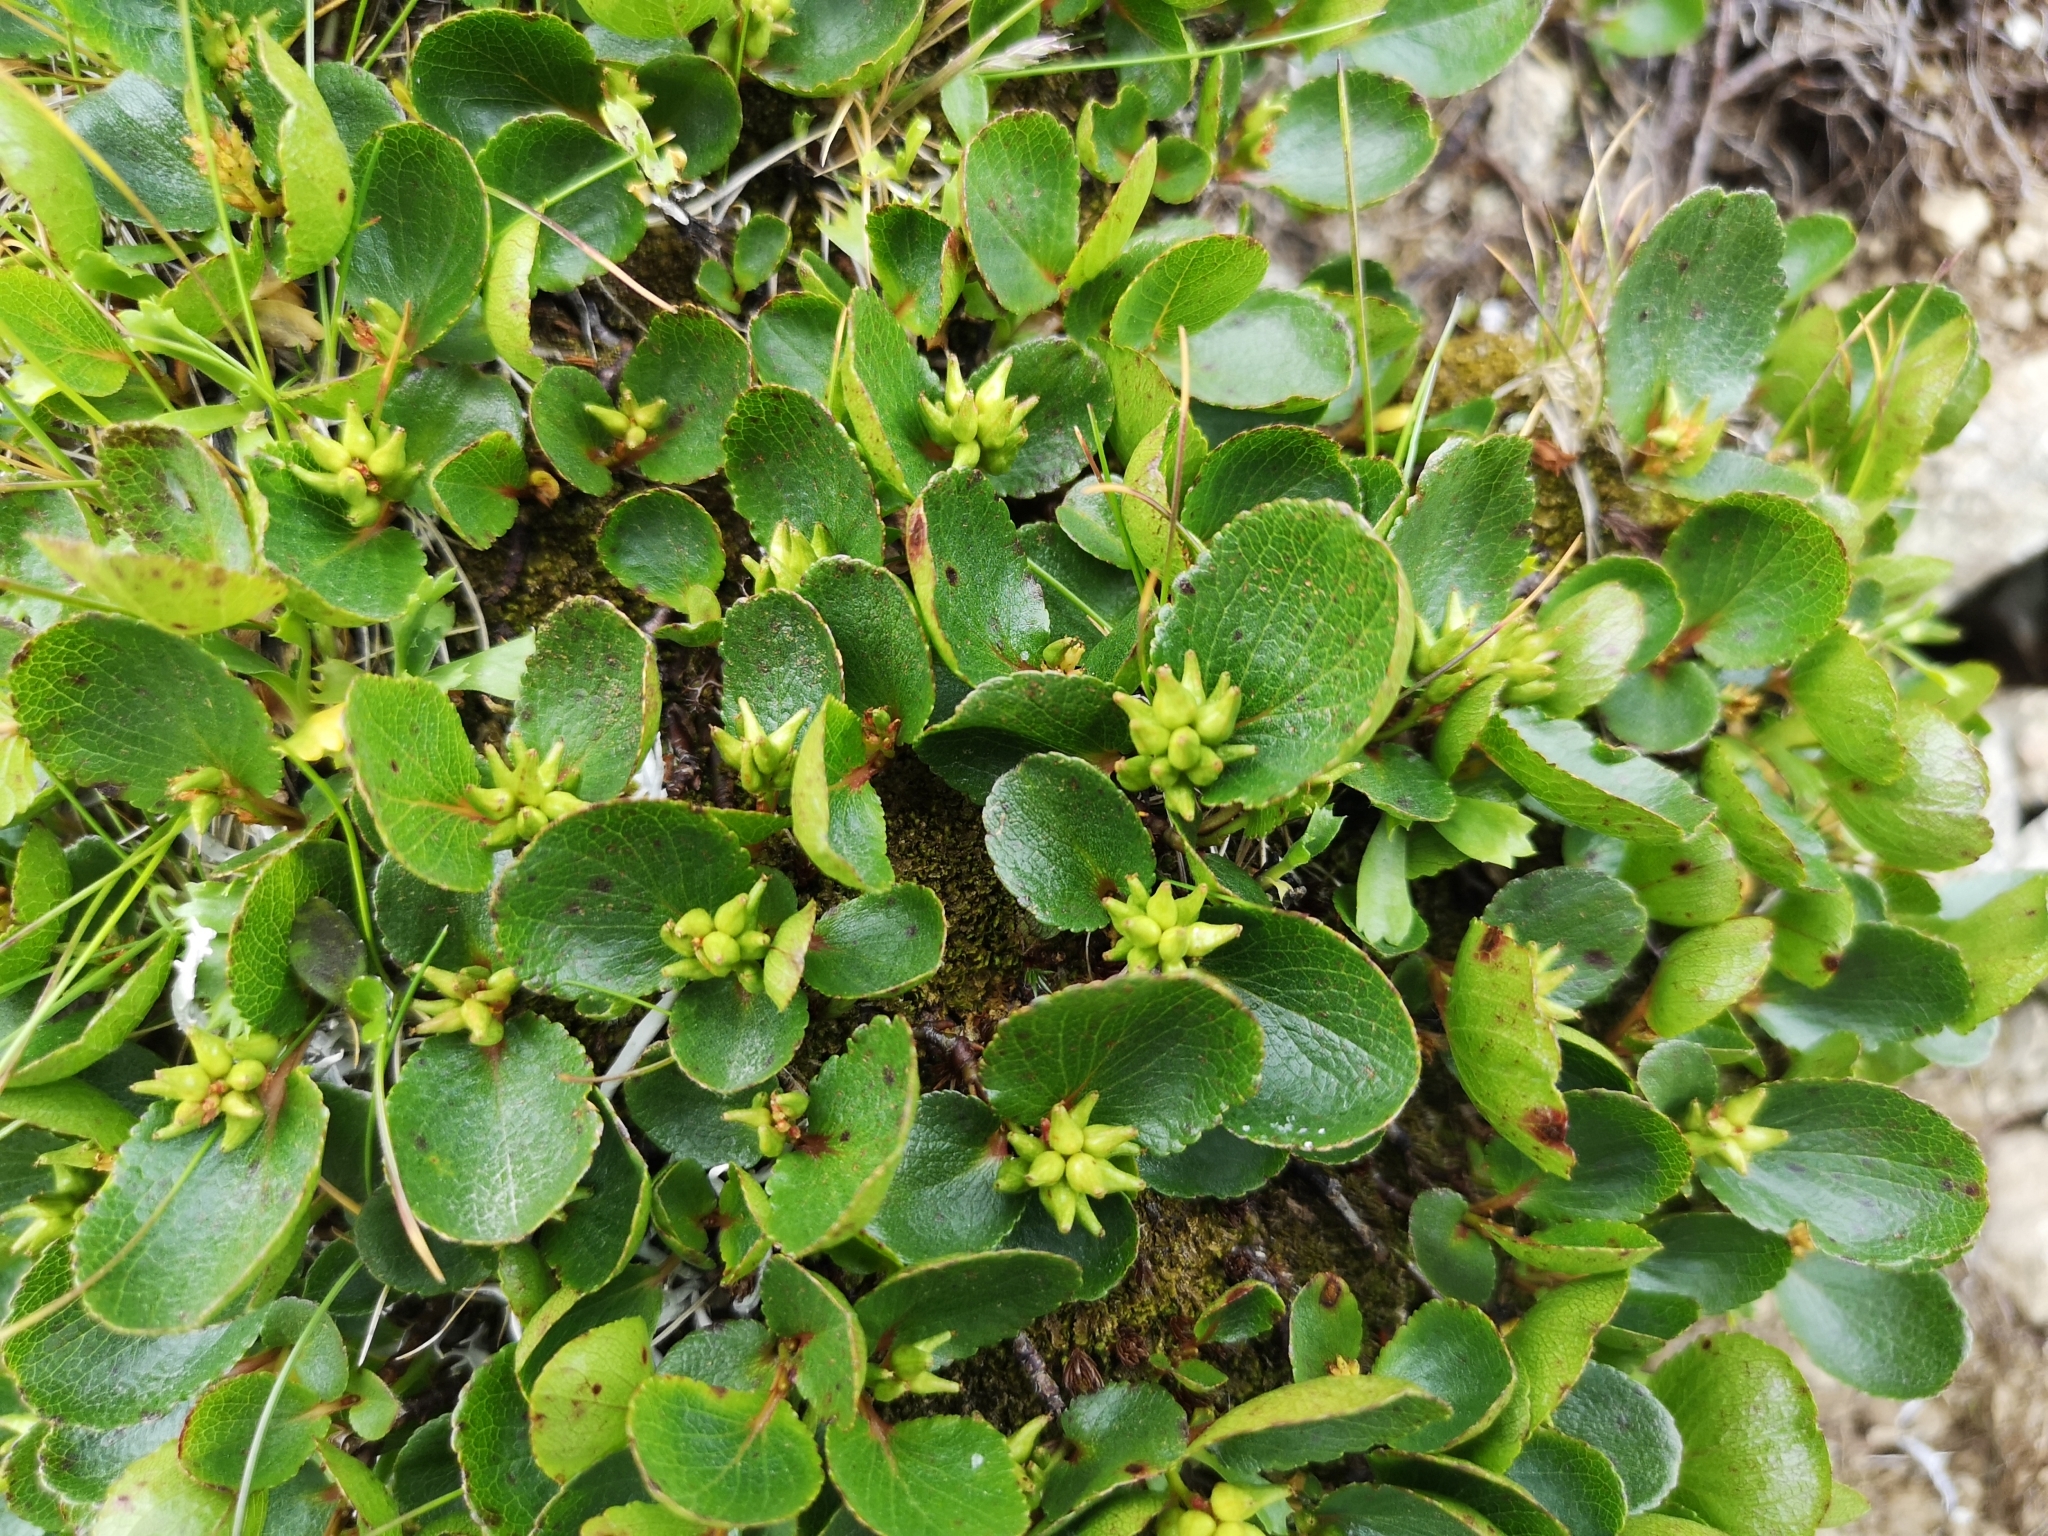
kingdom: Plantae
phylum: Tracheophyta
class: Magnoliopsida
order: Malpighiales
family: Salicaceae
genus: Salix
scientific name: Salix herbacea
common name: Dwarf willow
